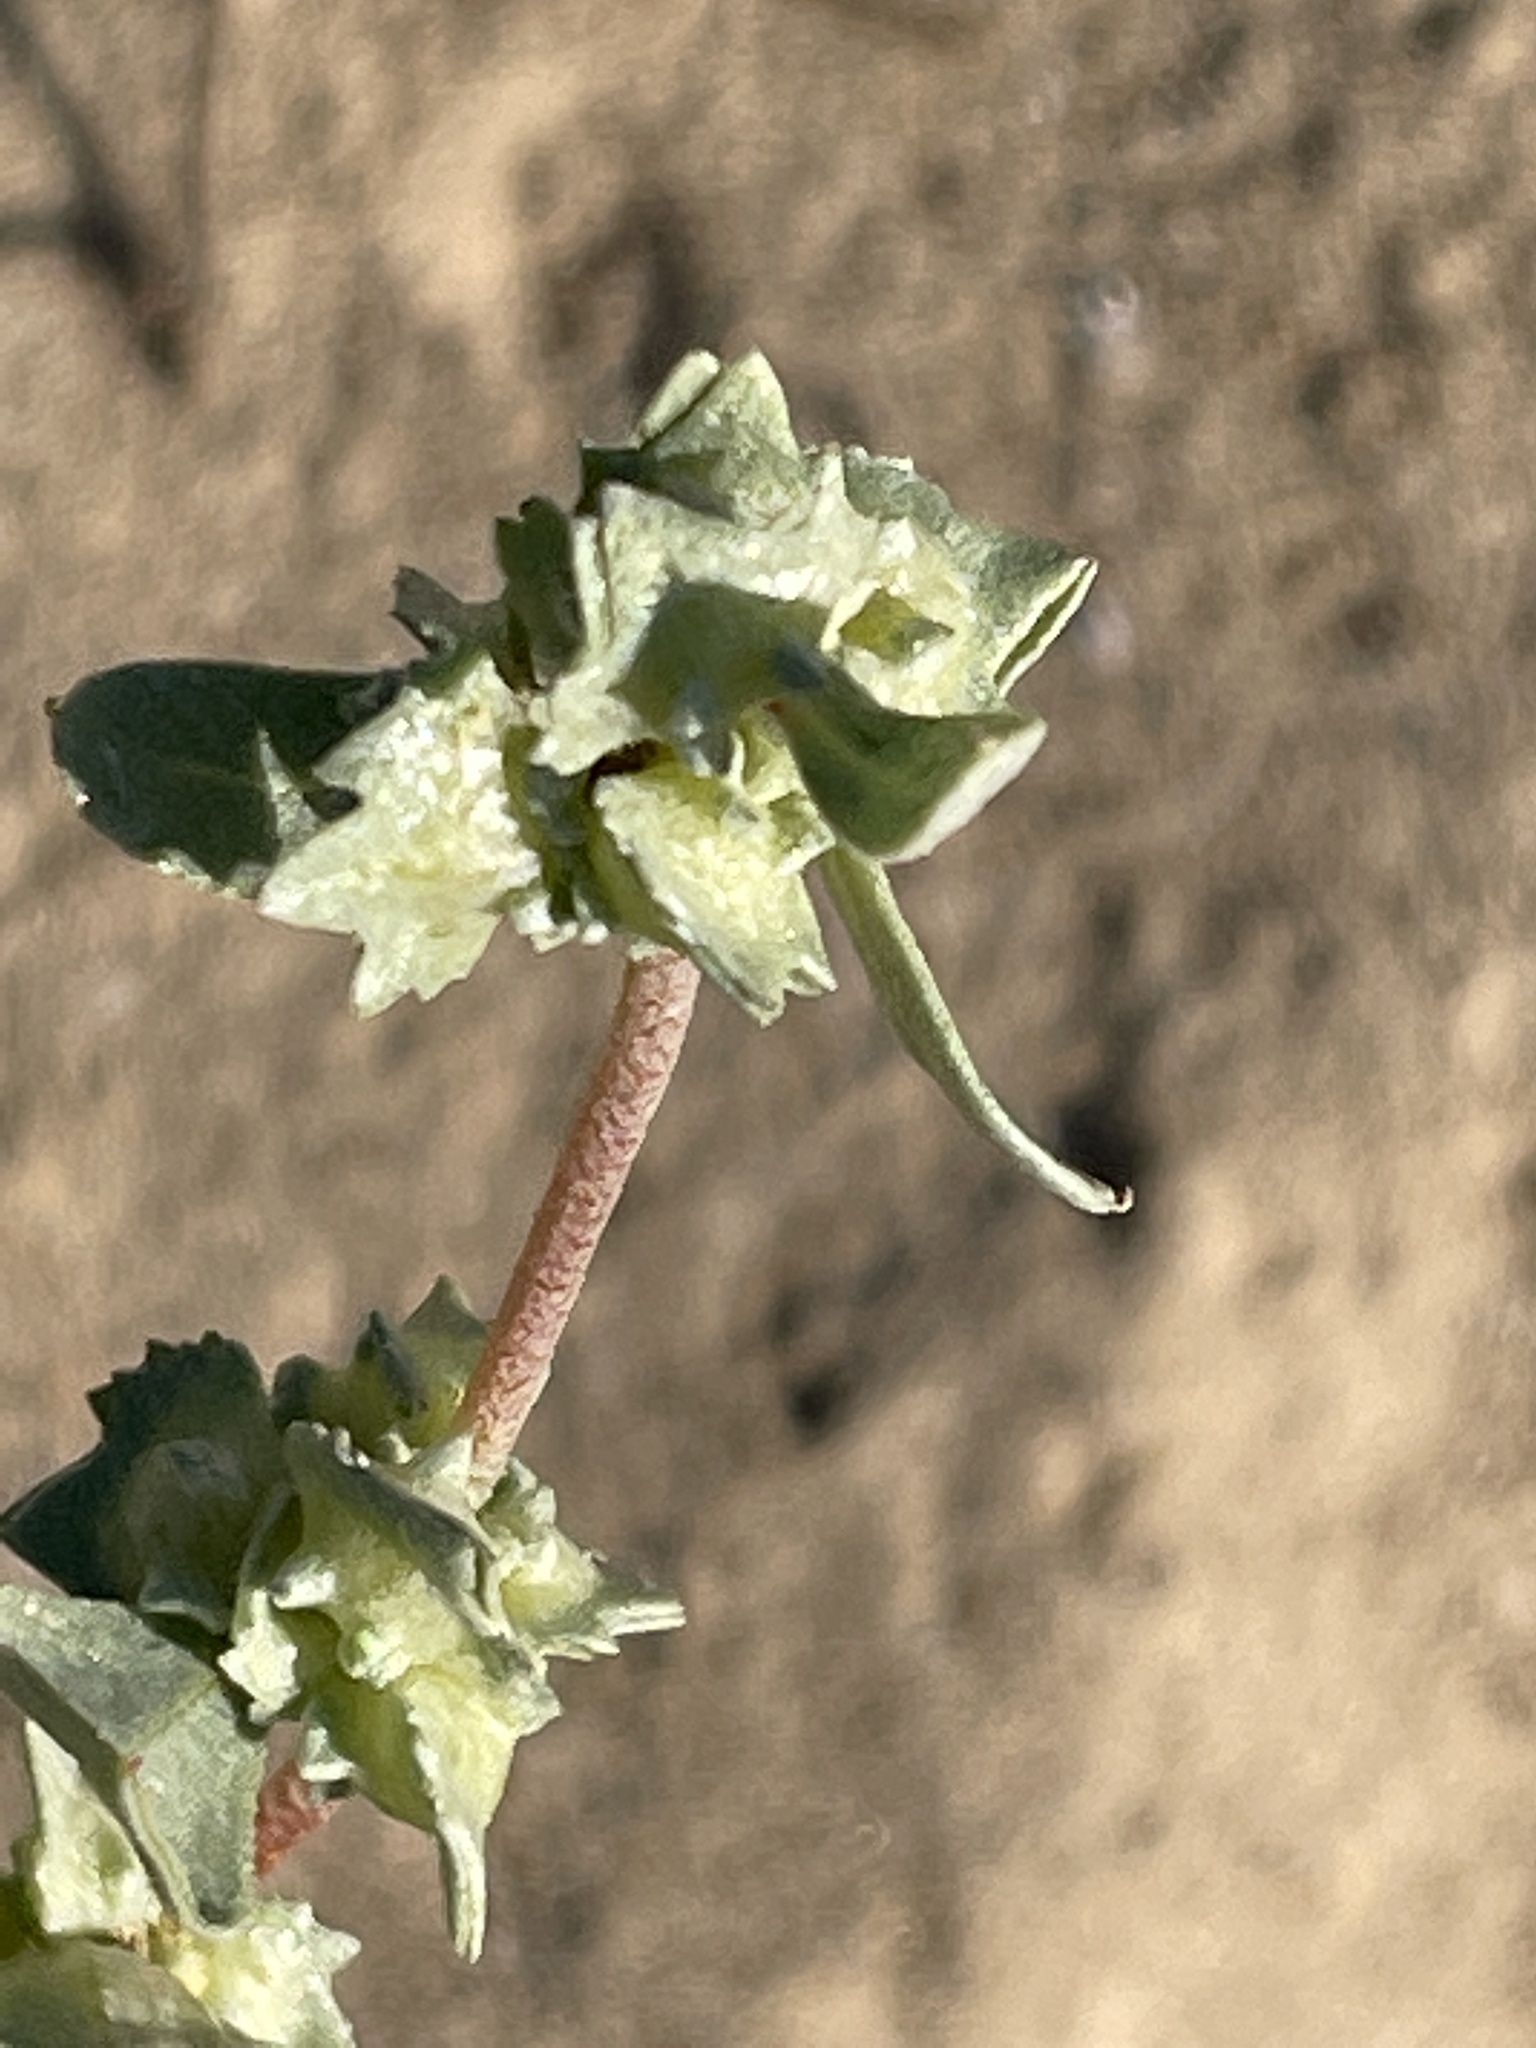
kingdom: Plantae
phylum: Tracheophyta
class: Magnoliopsida
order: Caryophyllales
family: Amaranthaceae
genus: Atriplex
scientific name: Atriplex laciniata
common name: Frosted orache
